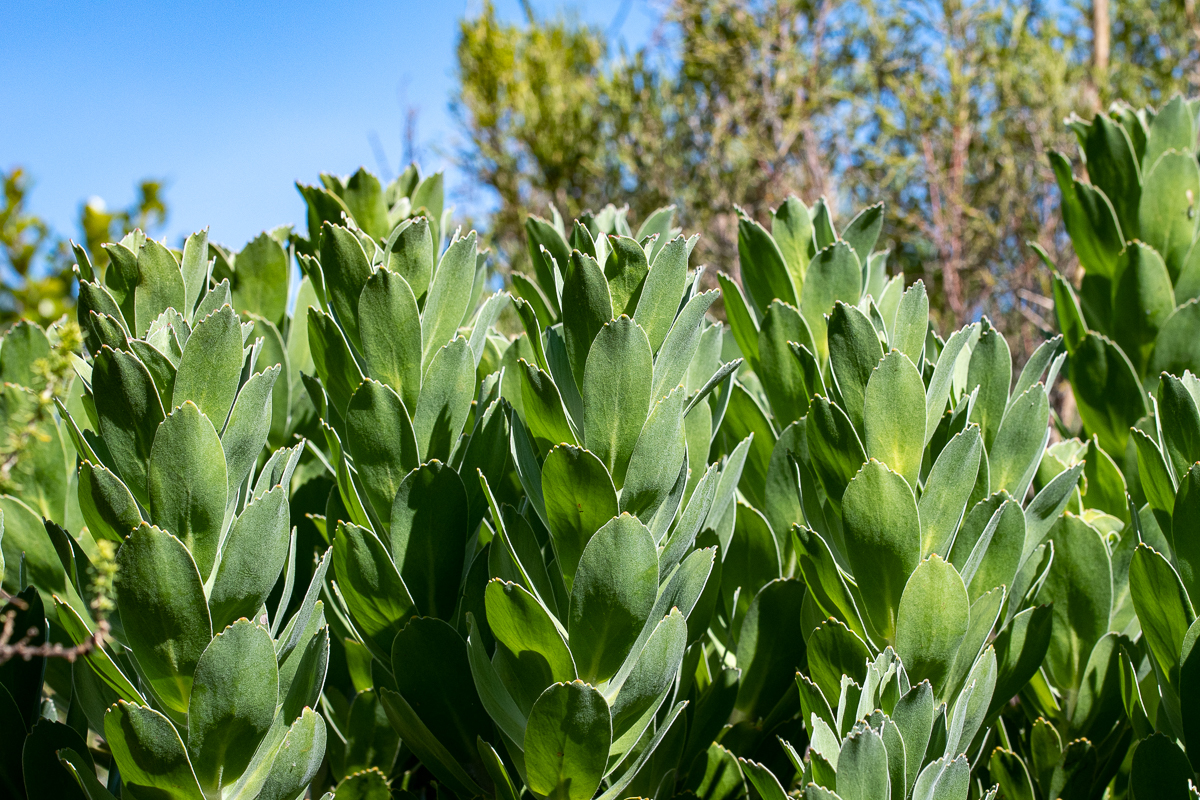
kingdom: Plantae
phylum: Tracheophyta
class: Magnoliopsida
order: Proteales
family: Proteaceae
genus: Leucospermum
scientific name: Leucospermum conocarpodendron
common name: Tree pincushion
